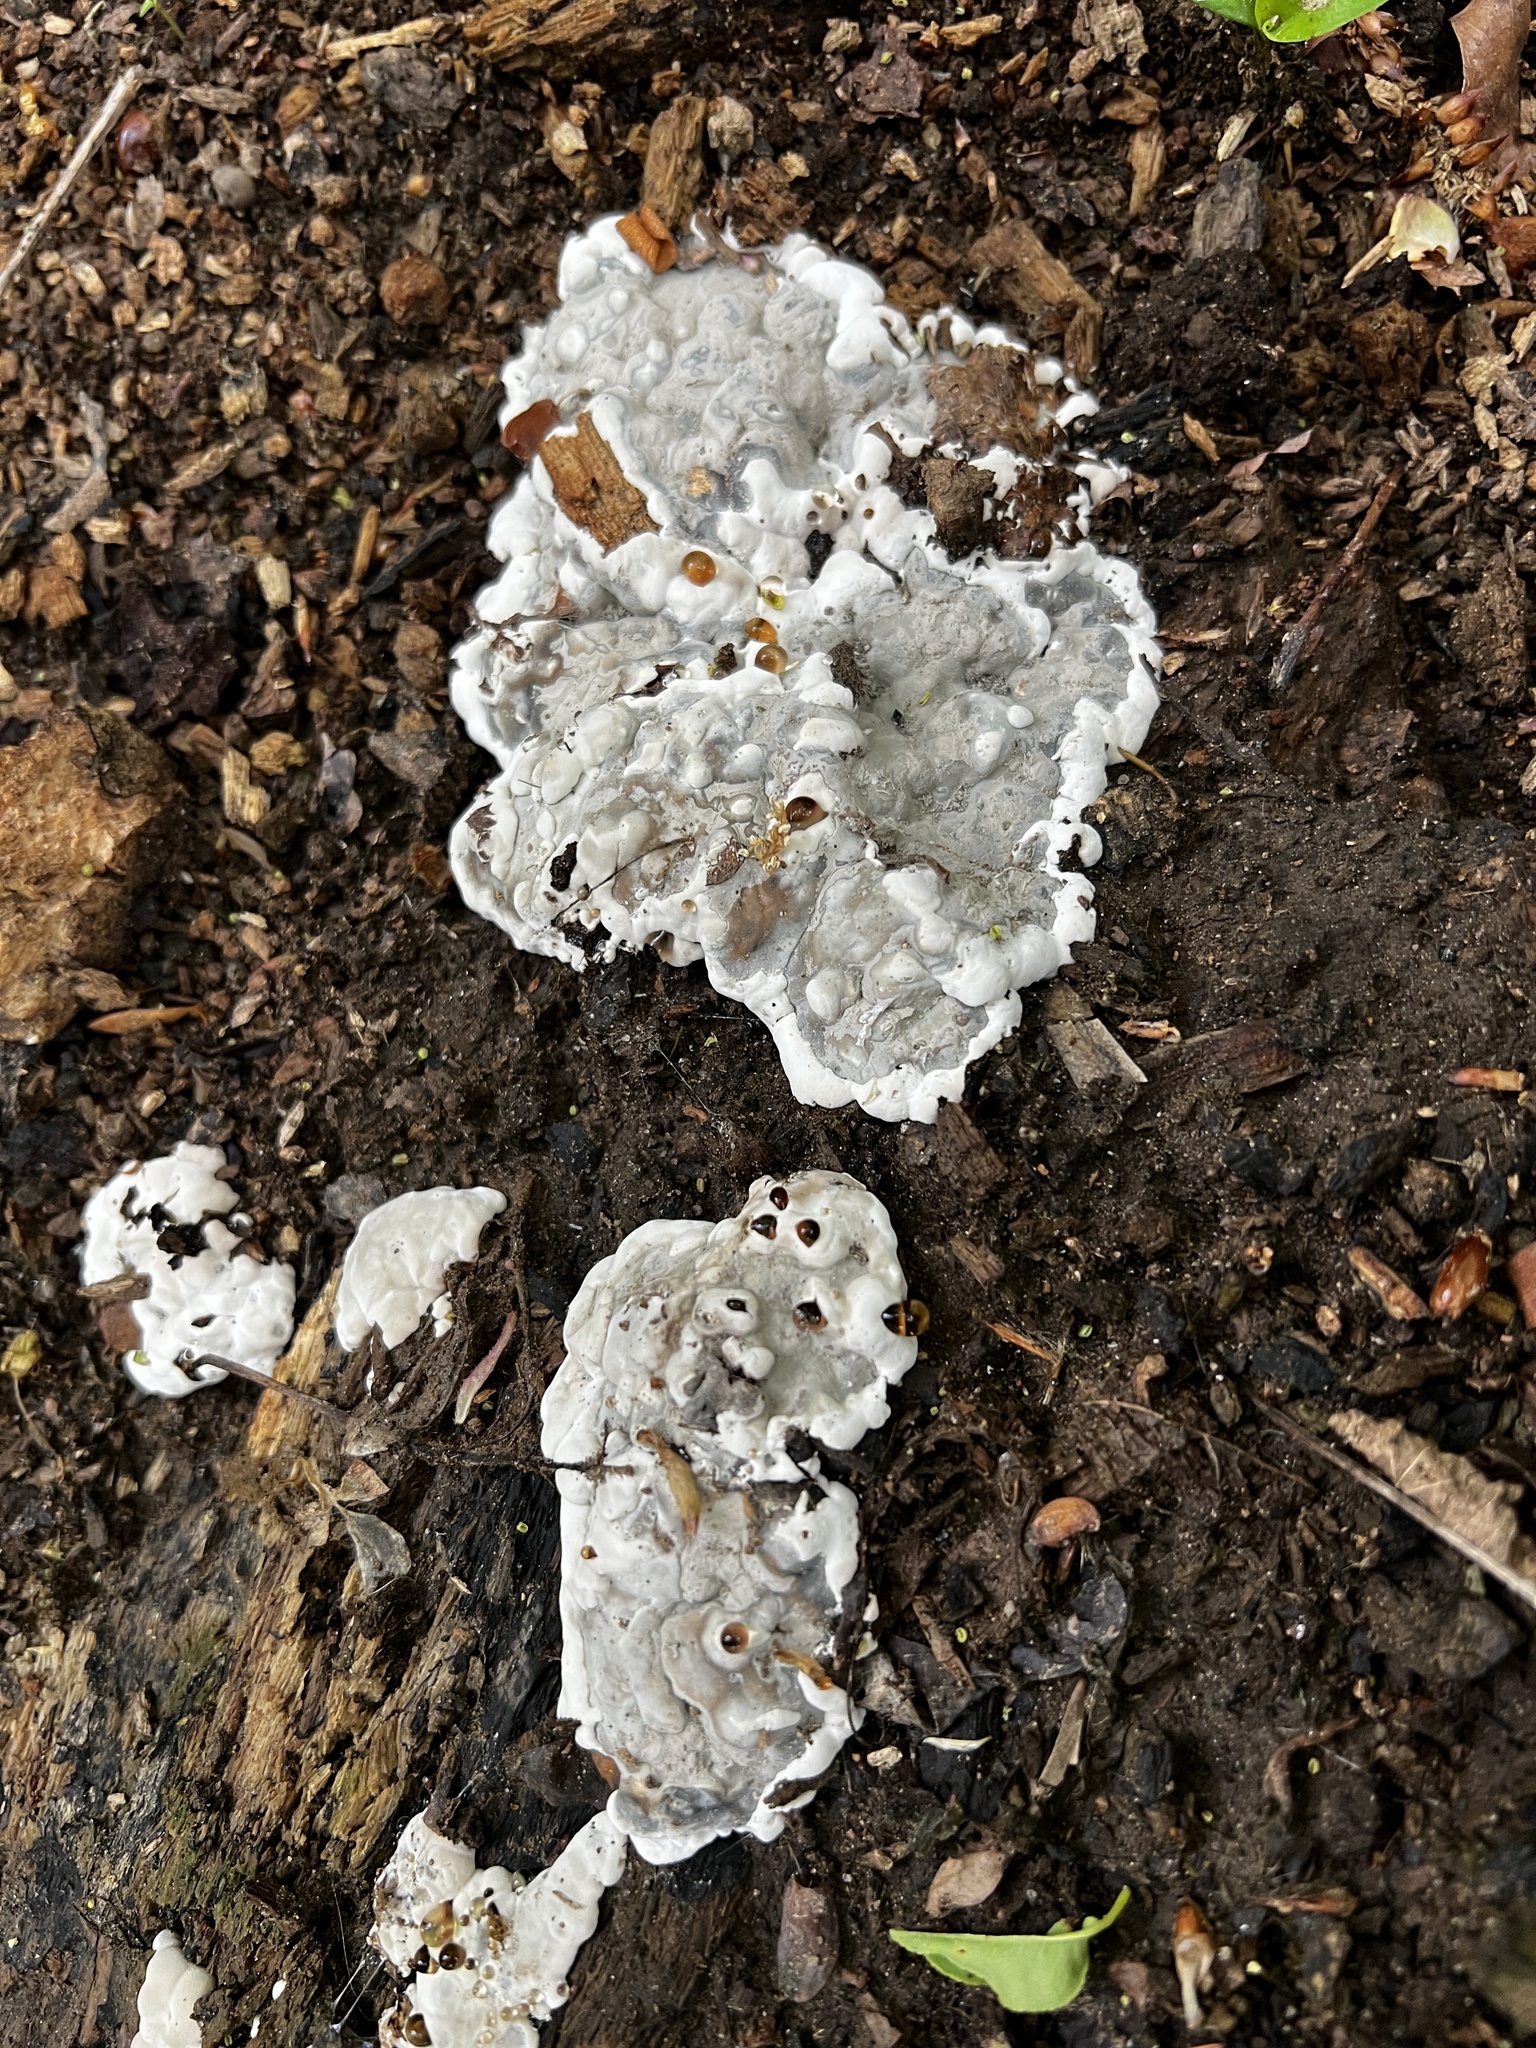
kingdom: Fungi
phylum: Ascomycota
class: Sordariomycetes
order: Xylariales
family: Xylariaceae
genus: Kretzschmaria
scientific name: Kretzschmaria deusta
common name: Brittle cinder
